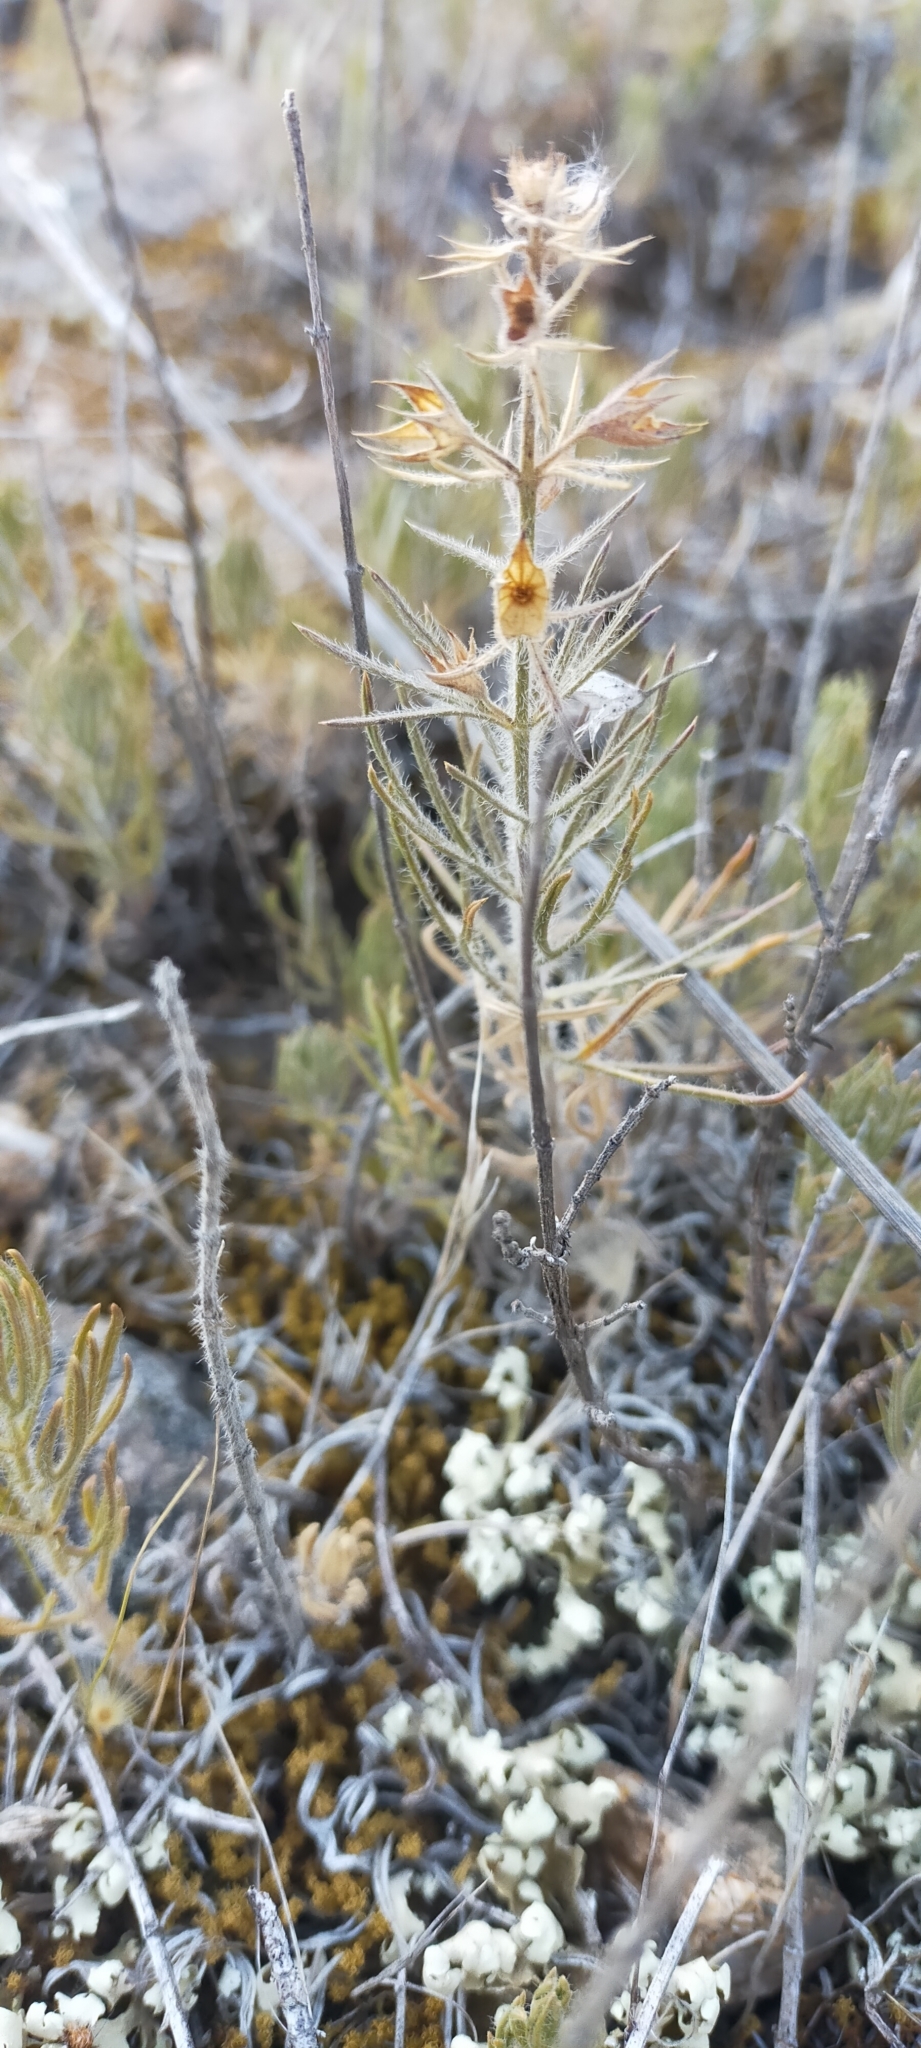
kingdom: Plantae
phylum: Tracheophyta
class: Magnoliopsida
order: Lamiales
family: Lamiaceae
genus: Teucrium
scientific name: Teucrium pseudochamaepitys
